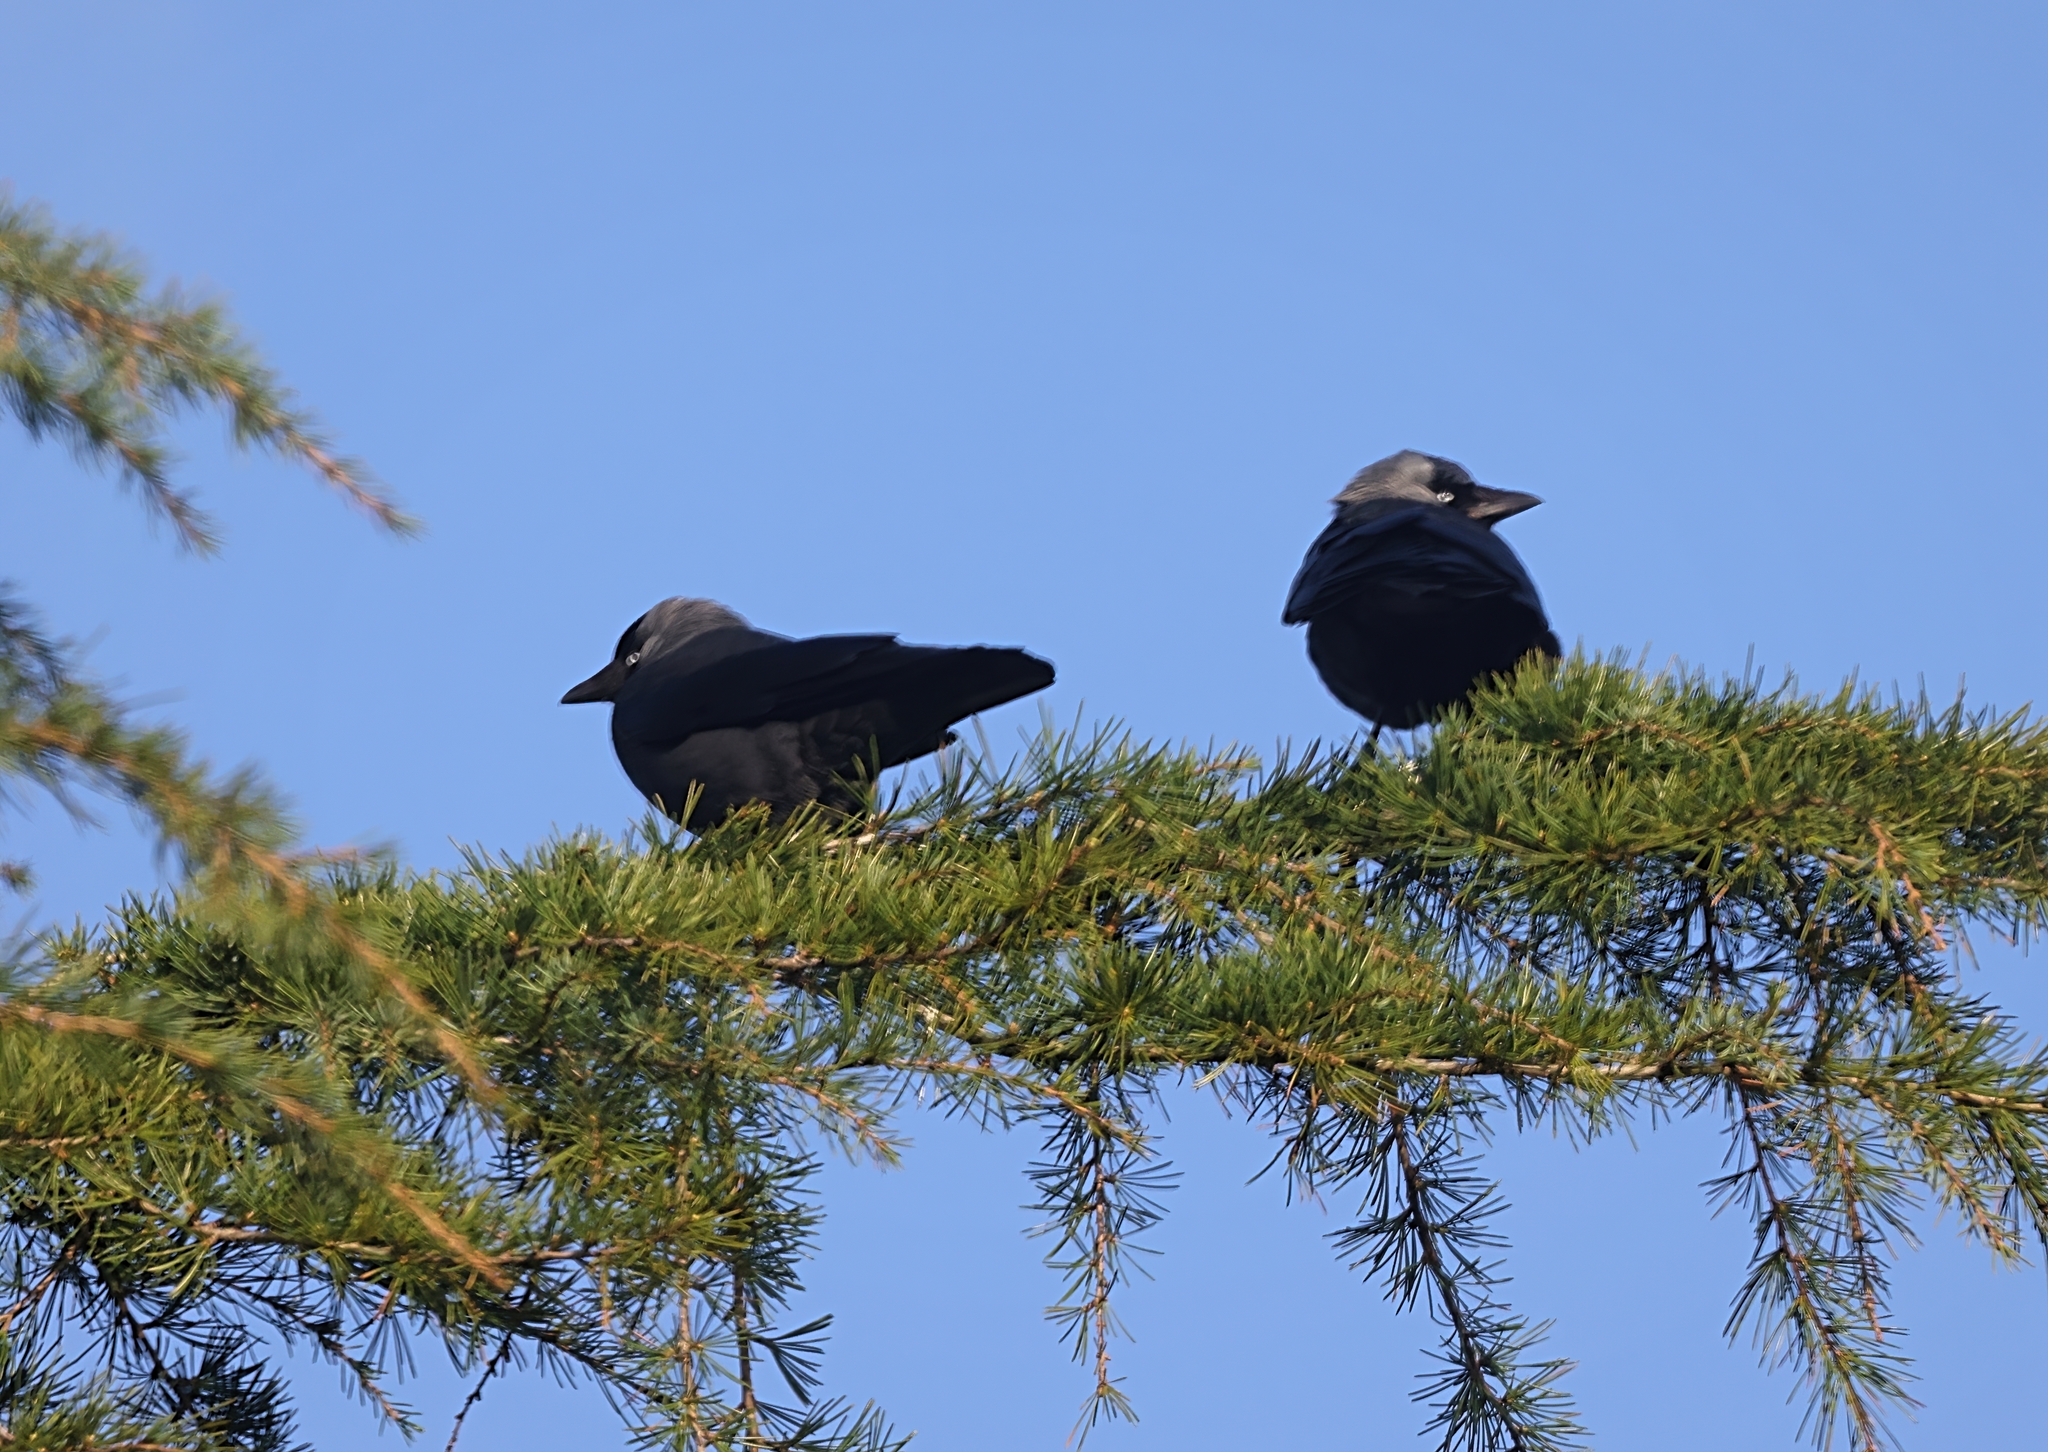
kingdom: Animalia
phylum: Chordata
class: Aves
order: Passeriformes
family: Corvidae
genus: Coloeus
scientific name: Coloeus monedula
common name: Western jackdaw
